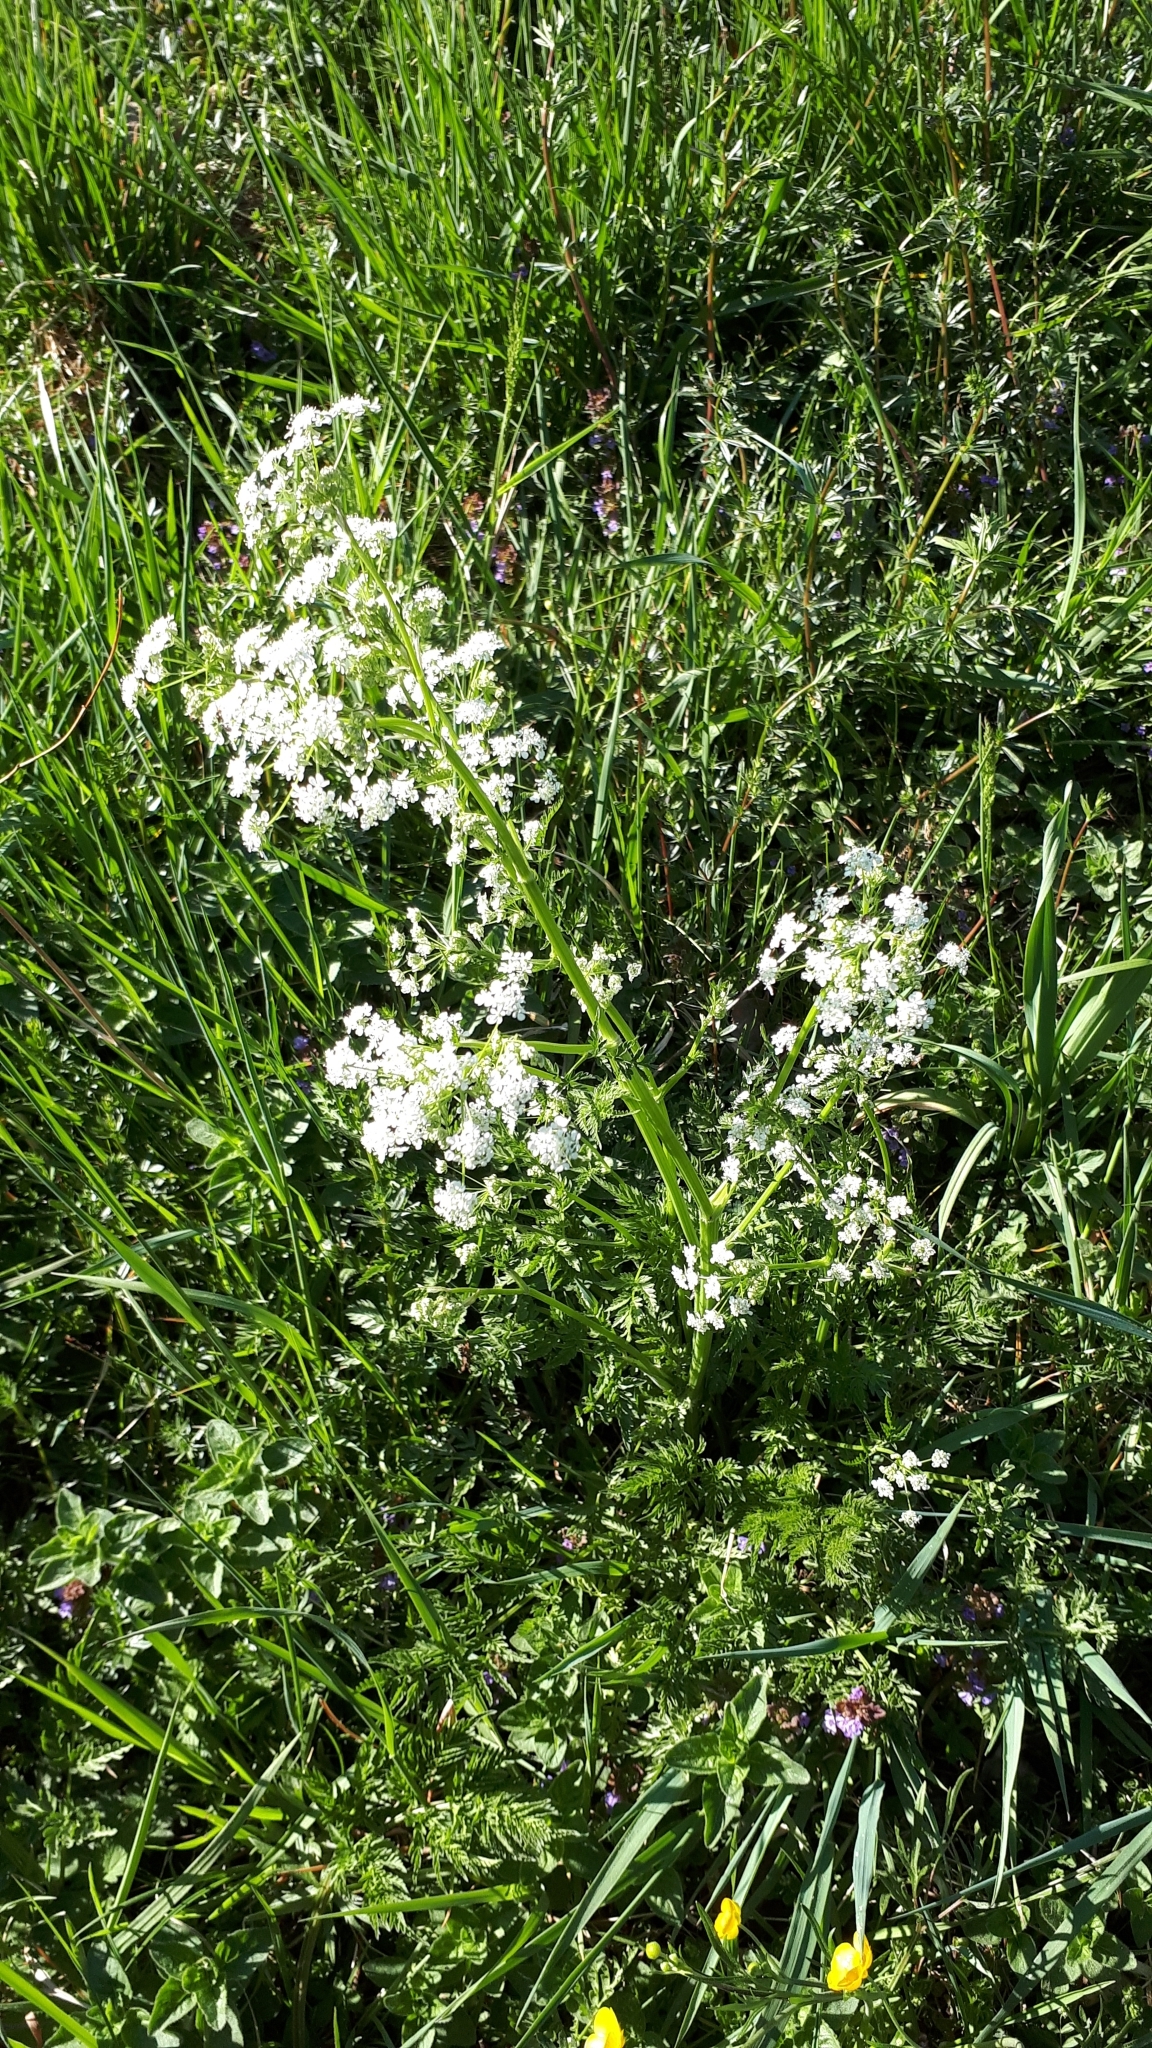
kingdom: Plantae
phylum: Tracheophyta
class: Magnoliopsida
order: Apiales
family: Apiaceae
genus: Anthriscus
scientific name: Anthriscus sylvestris
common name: Cow parsley
